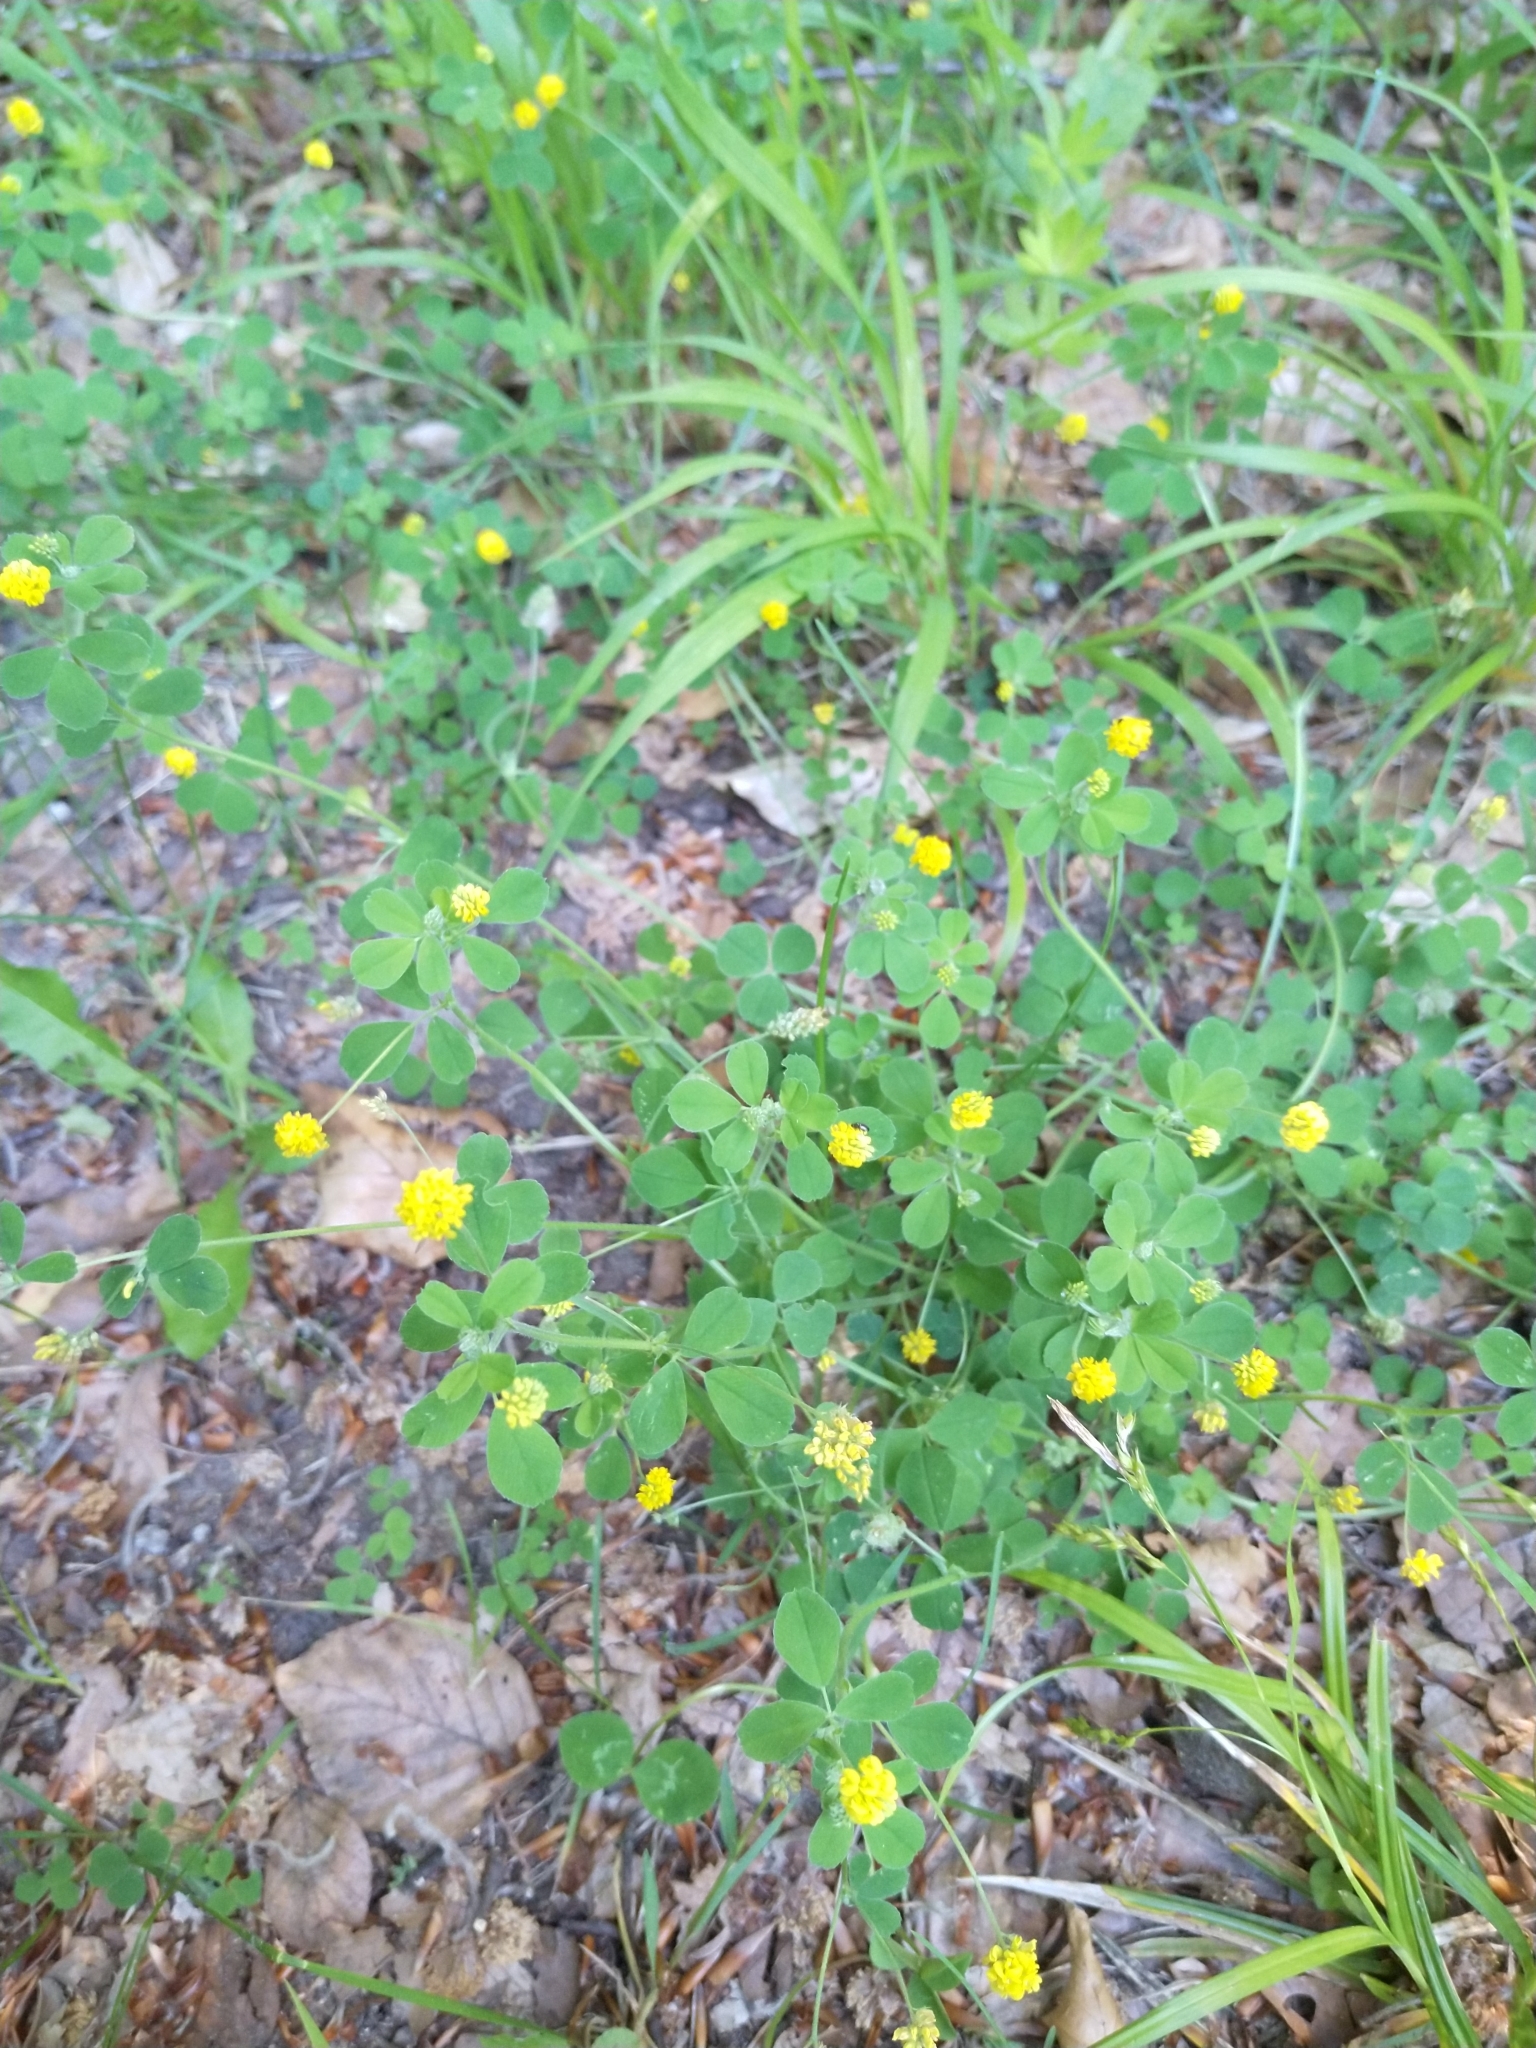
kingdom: Plantae
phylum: Tracheophyta
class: Magnoliopsida
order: Fabales
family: Fabaceae
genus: Medicago
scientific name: Medicago lupulina
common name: Black medick
